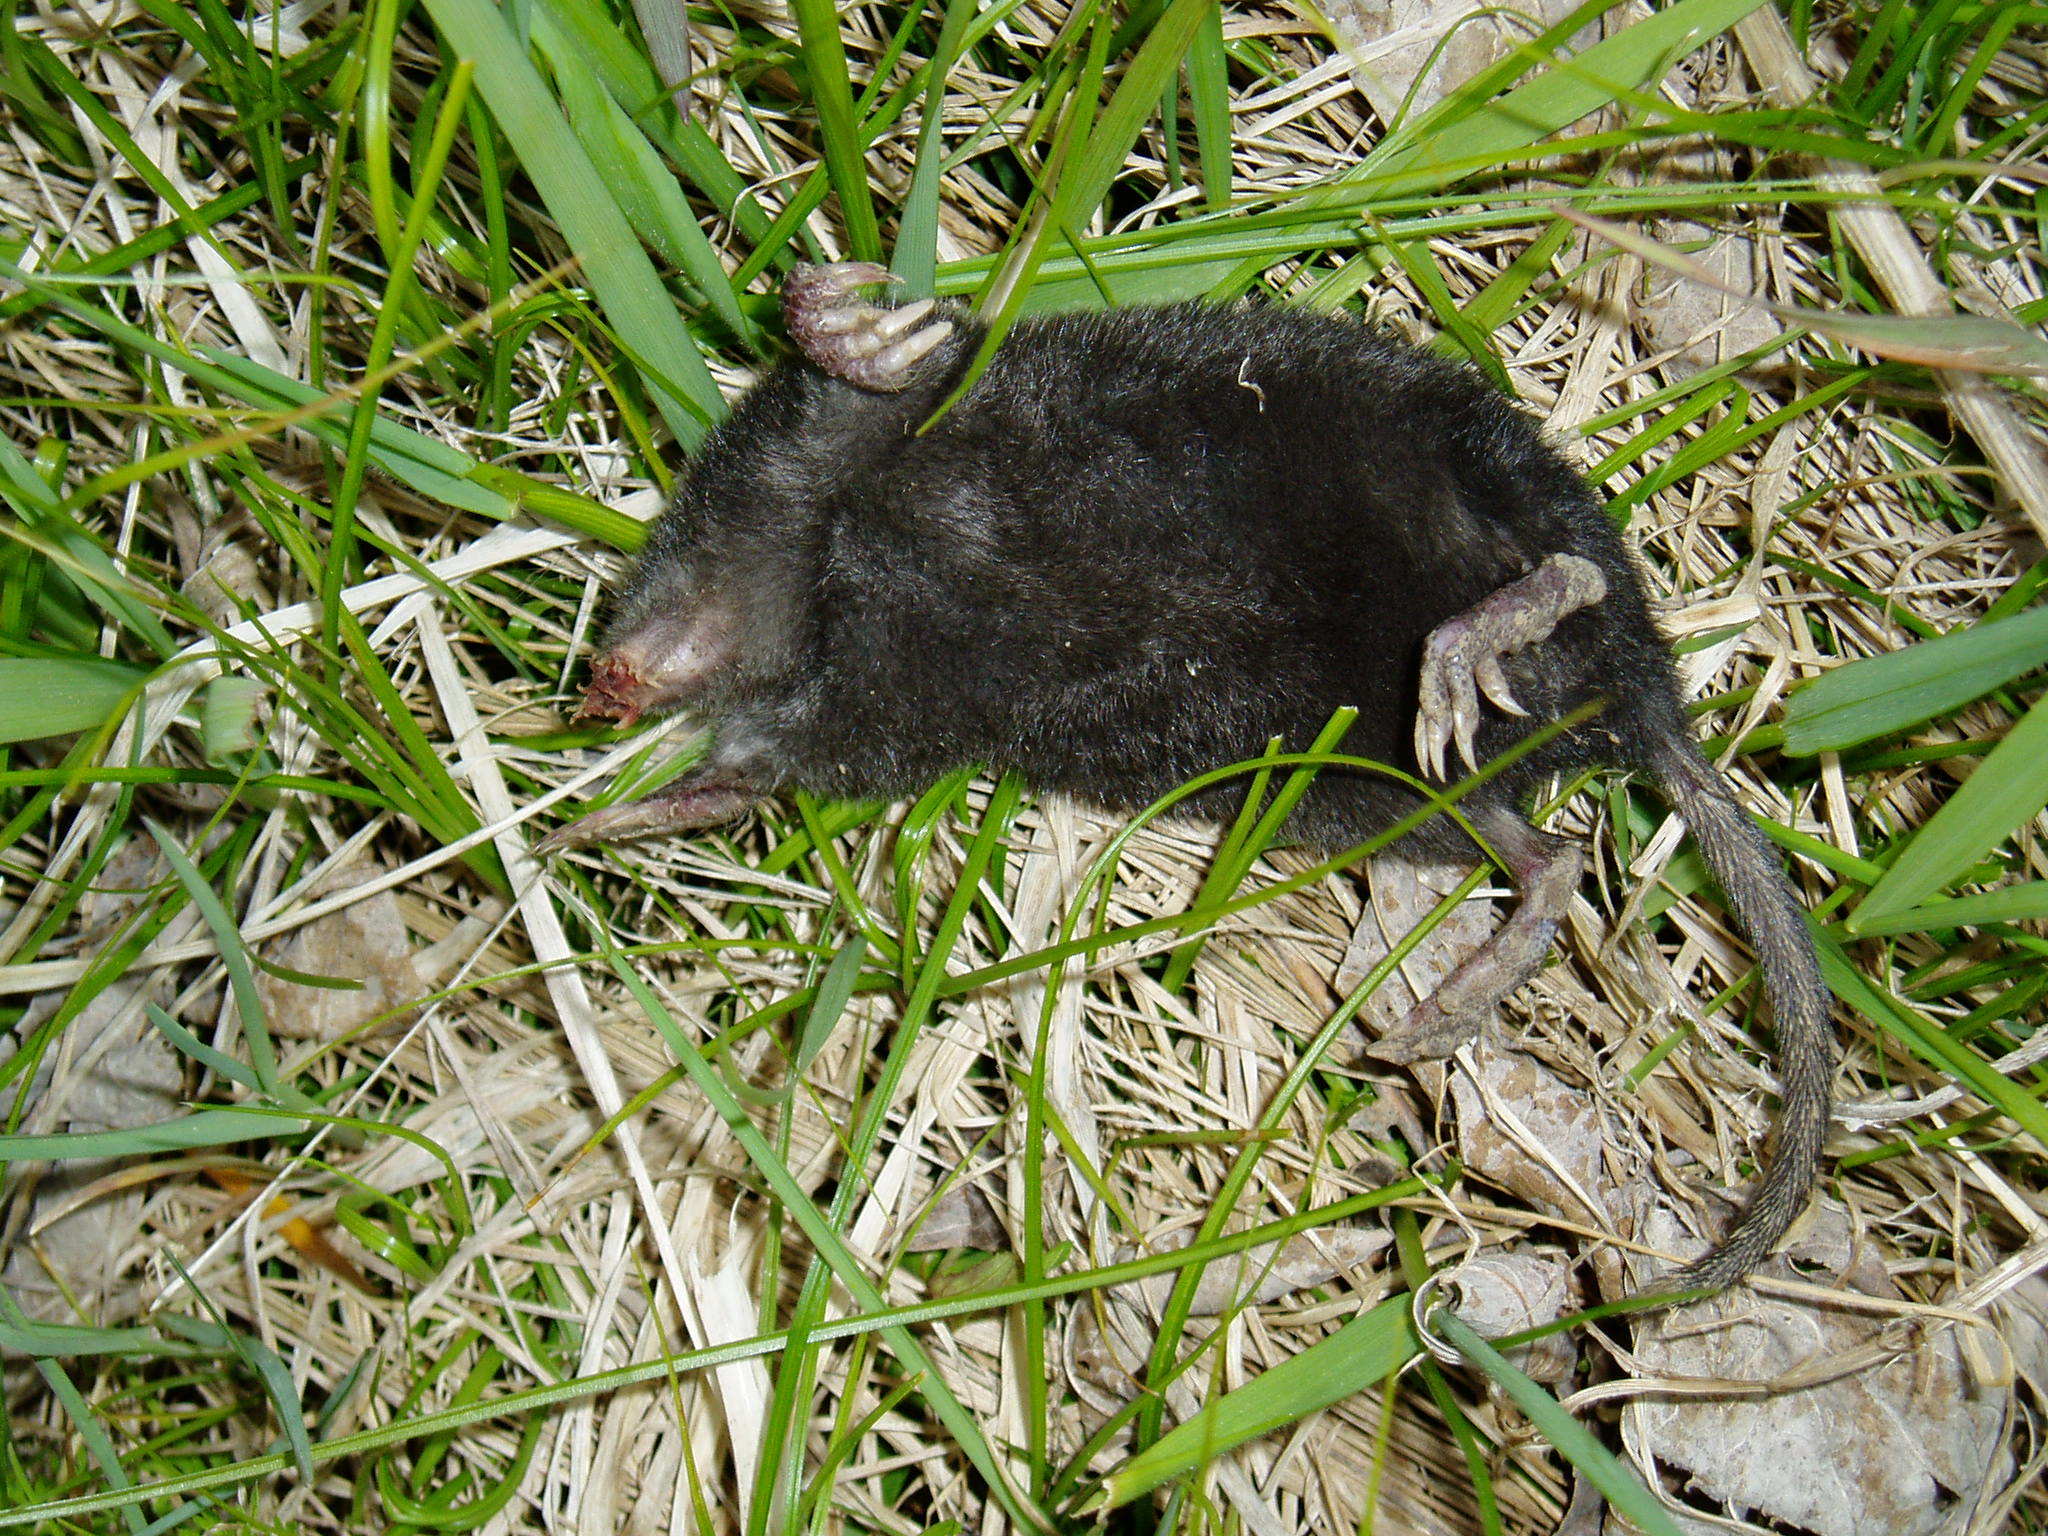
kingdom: Animalia
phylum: Chordata
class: Mammalia
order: Soricomorpha
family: Talpidae
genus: Condylura
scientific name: Condylura cristata
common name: Star-nosed mole
